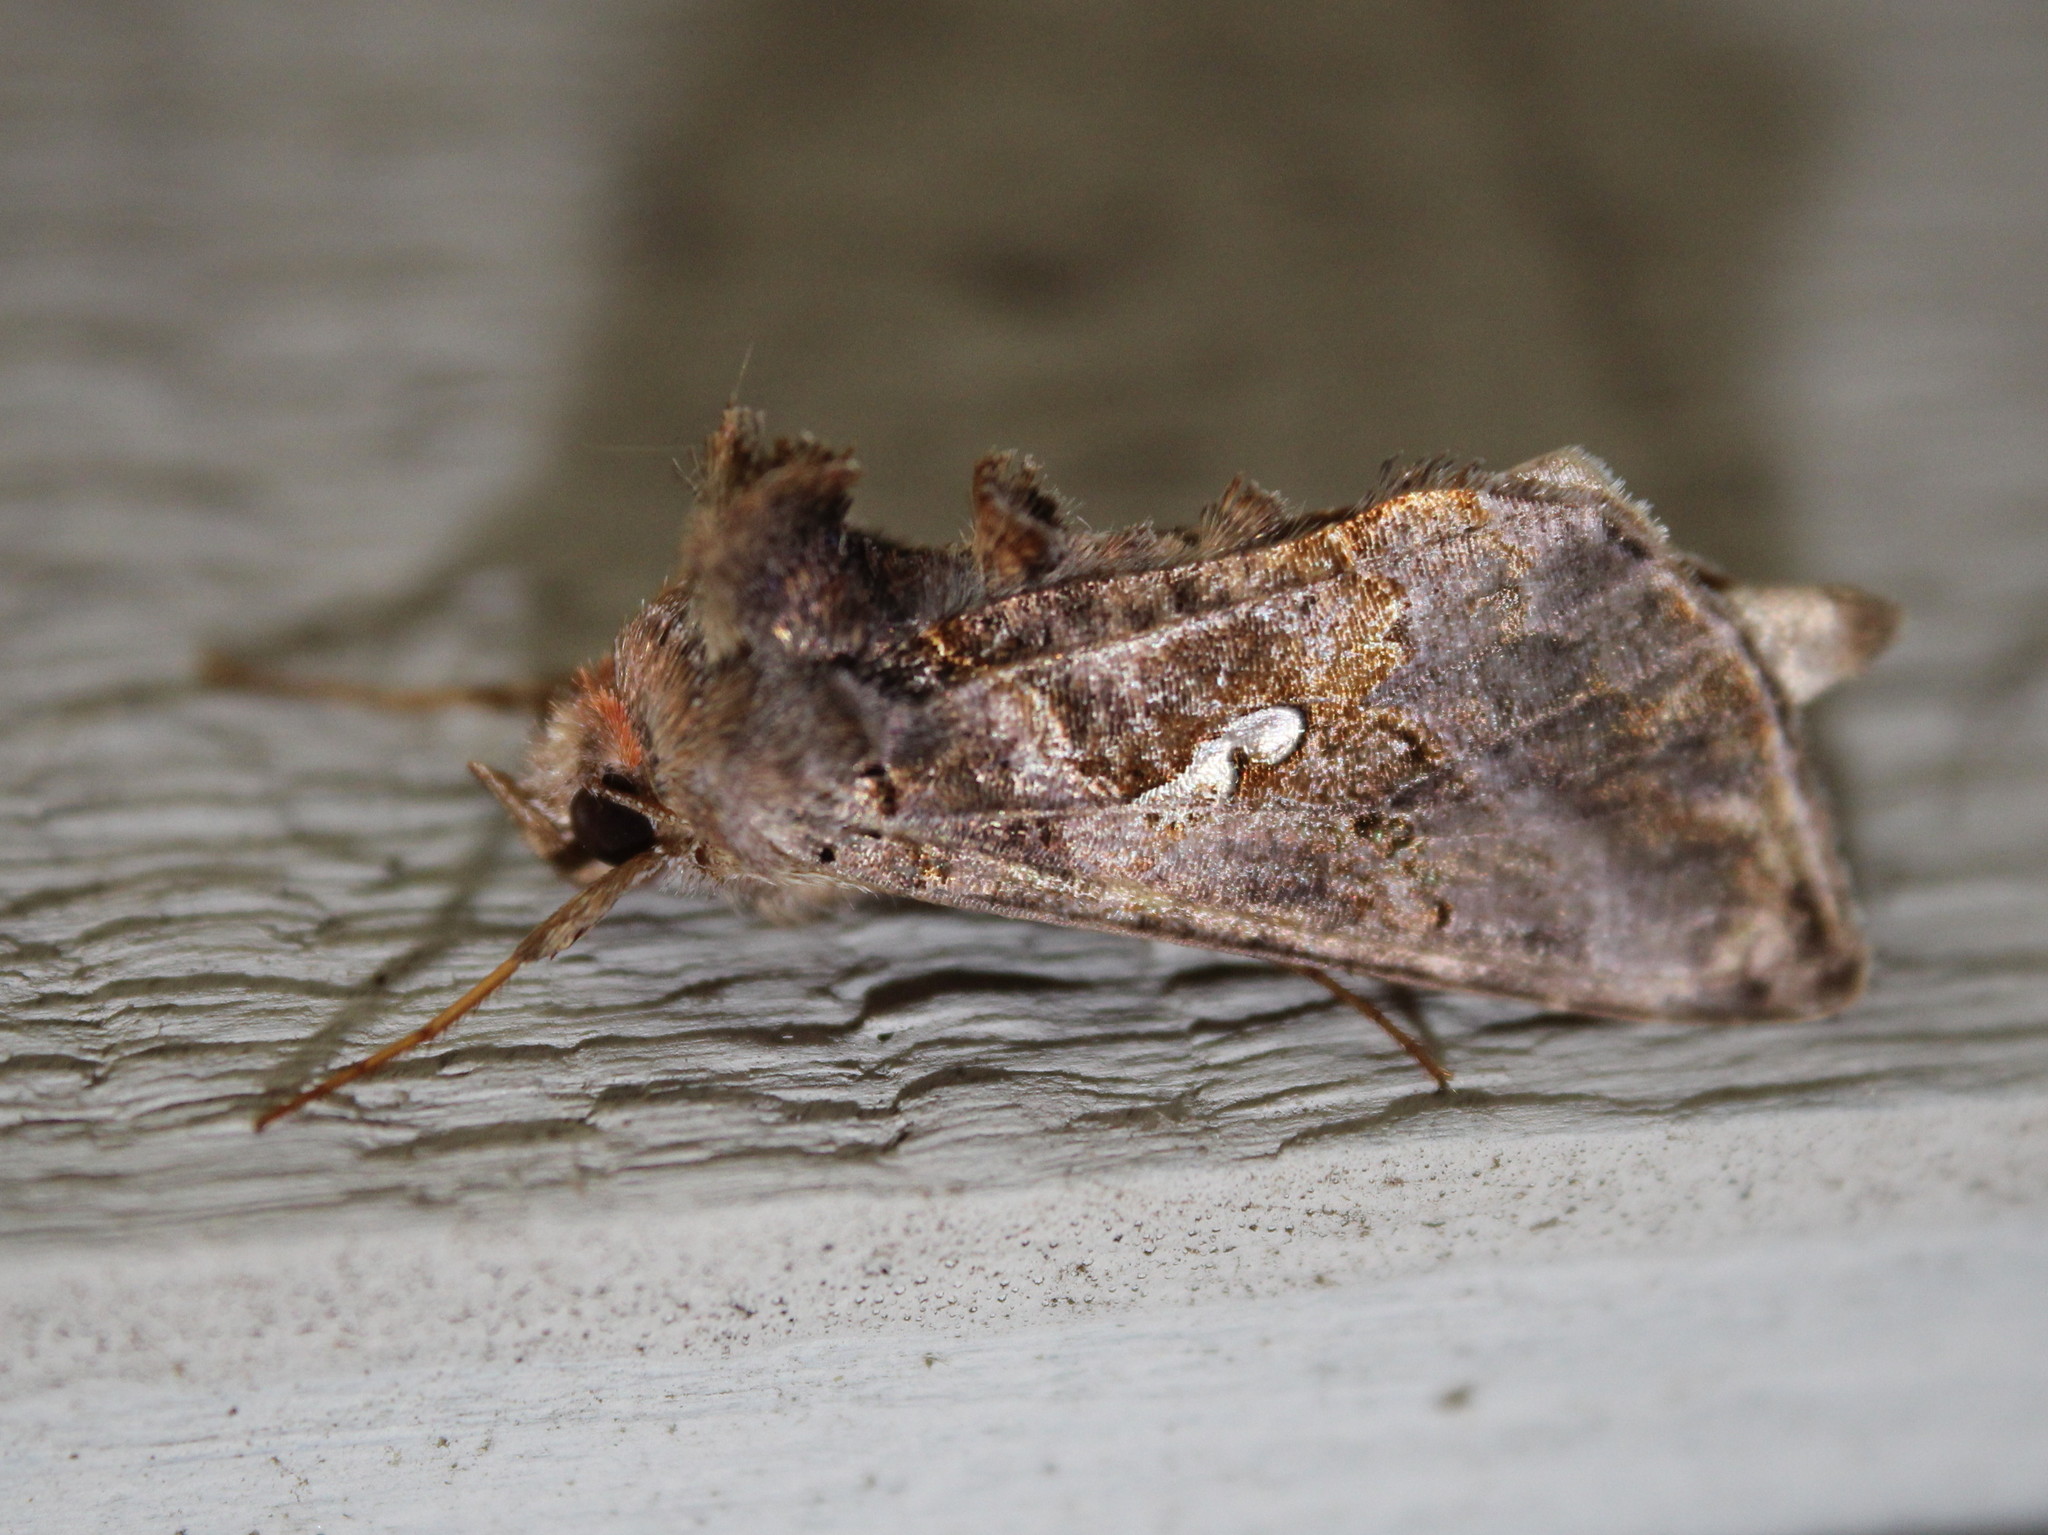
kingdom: Animalia
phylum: Arthropoda
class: Insecta
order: Lepidoptera
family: Noctuidae
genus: Autographa
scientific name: Autographa precationis
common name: Common looper moth
